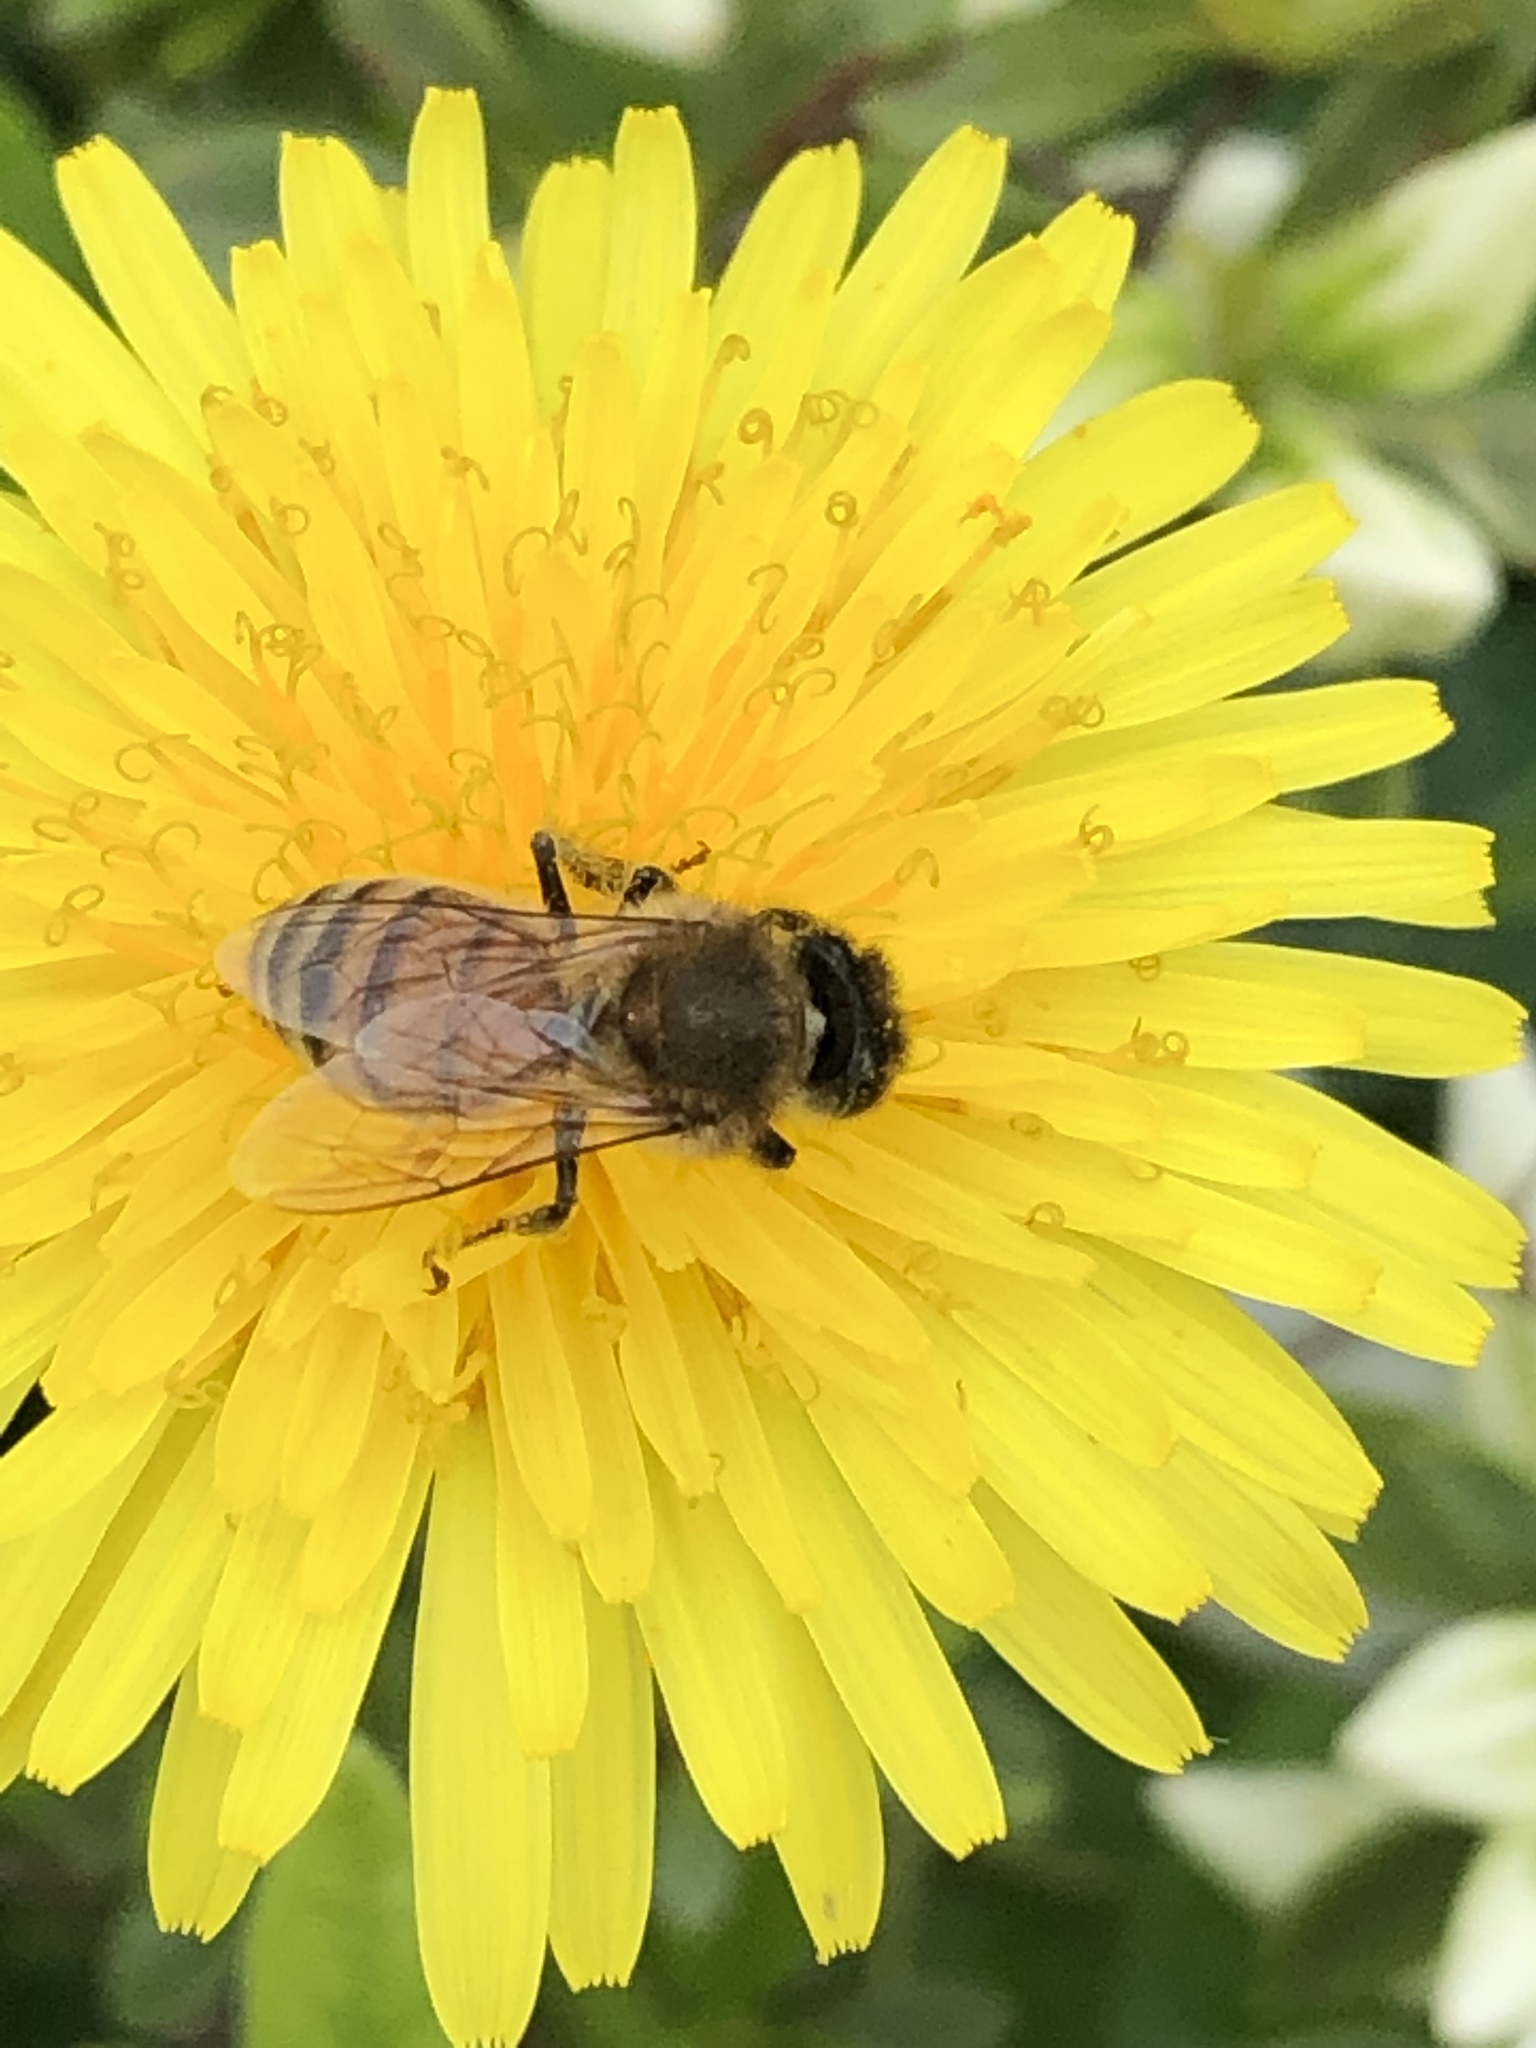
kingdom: Animalia
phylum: Arthropoda
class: Insecta
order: Hymenoptera
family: Apidae
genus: Apis
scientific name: Apis mellifera
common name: Honey bee
